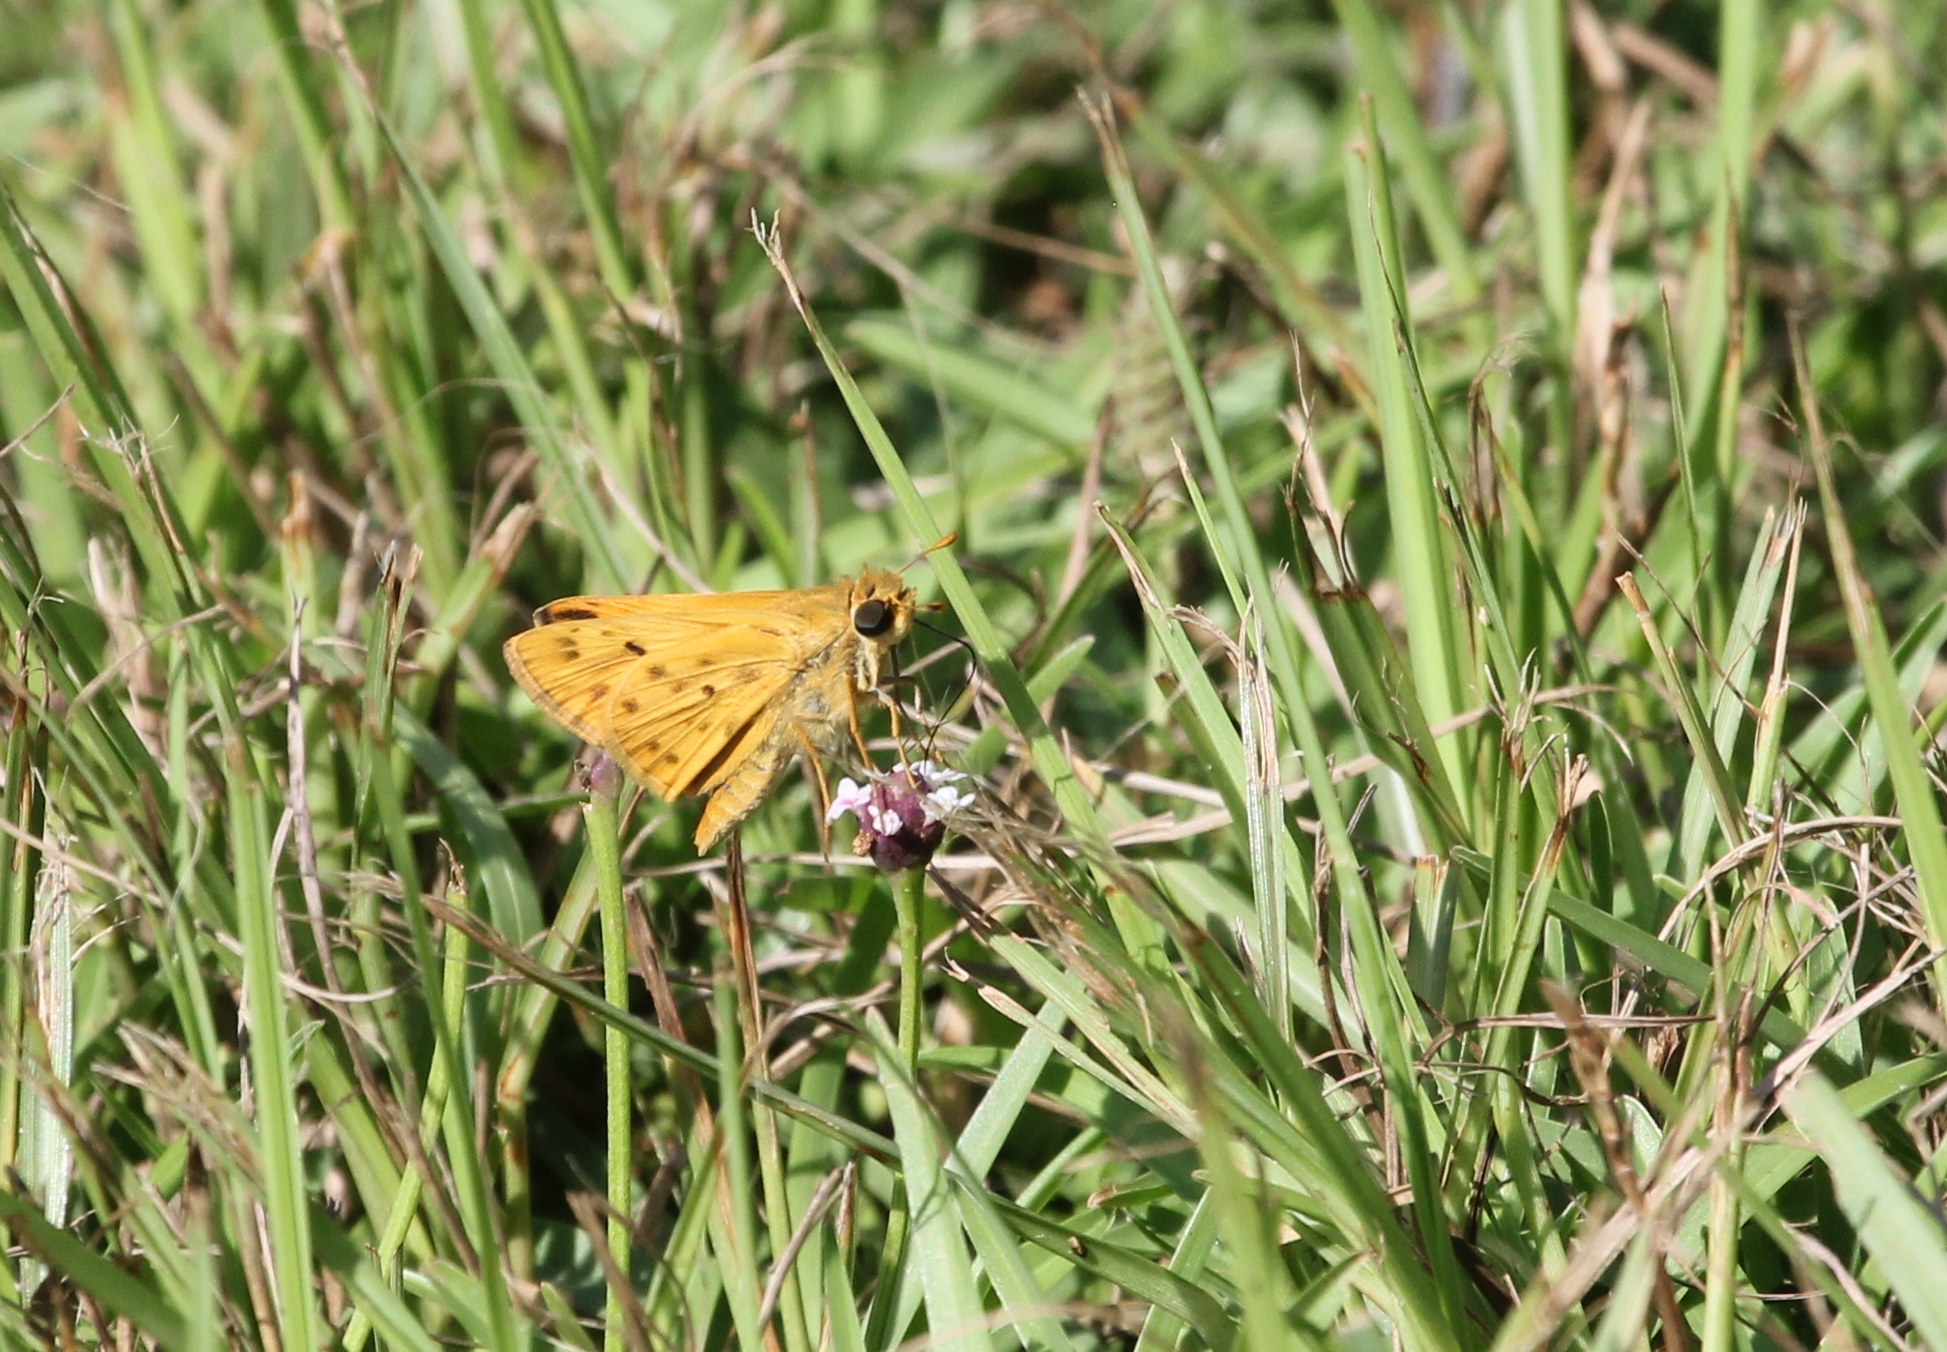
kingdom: Animalia
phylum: Arthropoda
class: Insecta
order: Lepidoptera
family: Hesperiidae
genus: Hylephila
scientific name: Hylephila phyleus
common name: Fiery skipper
